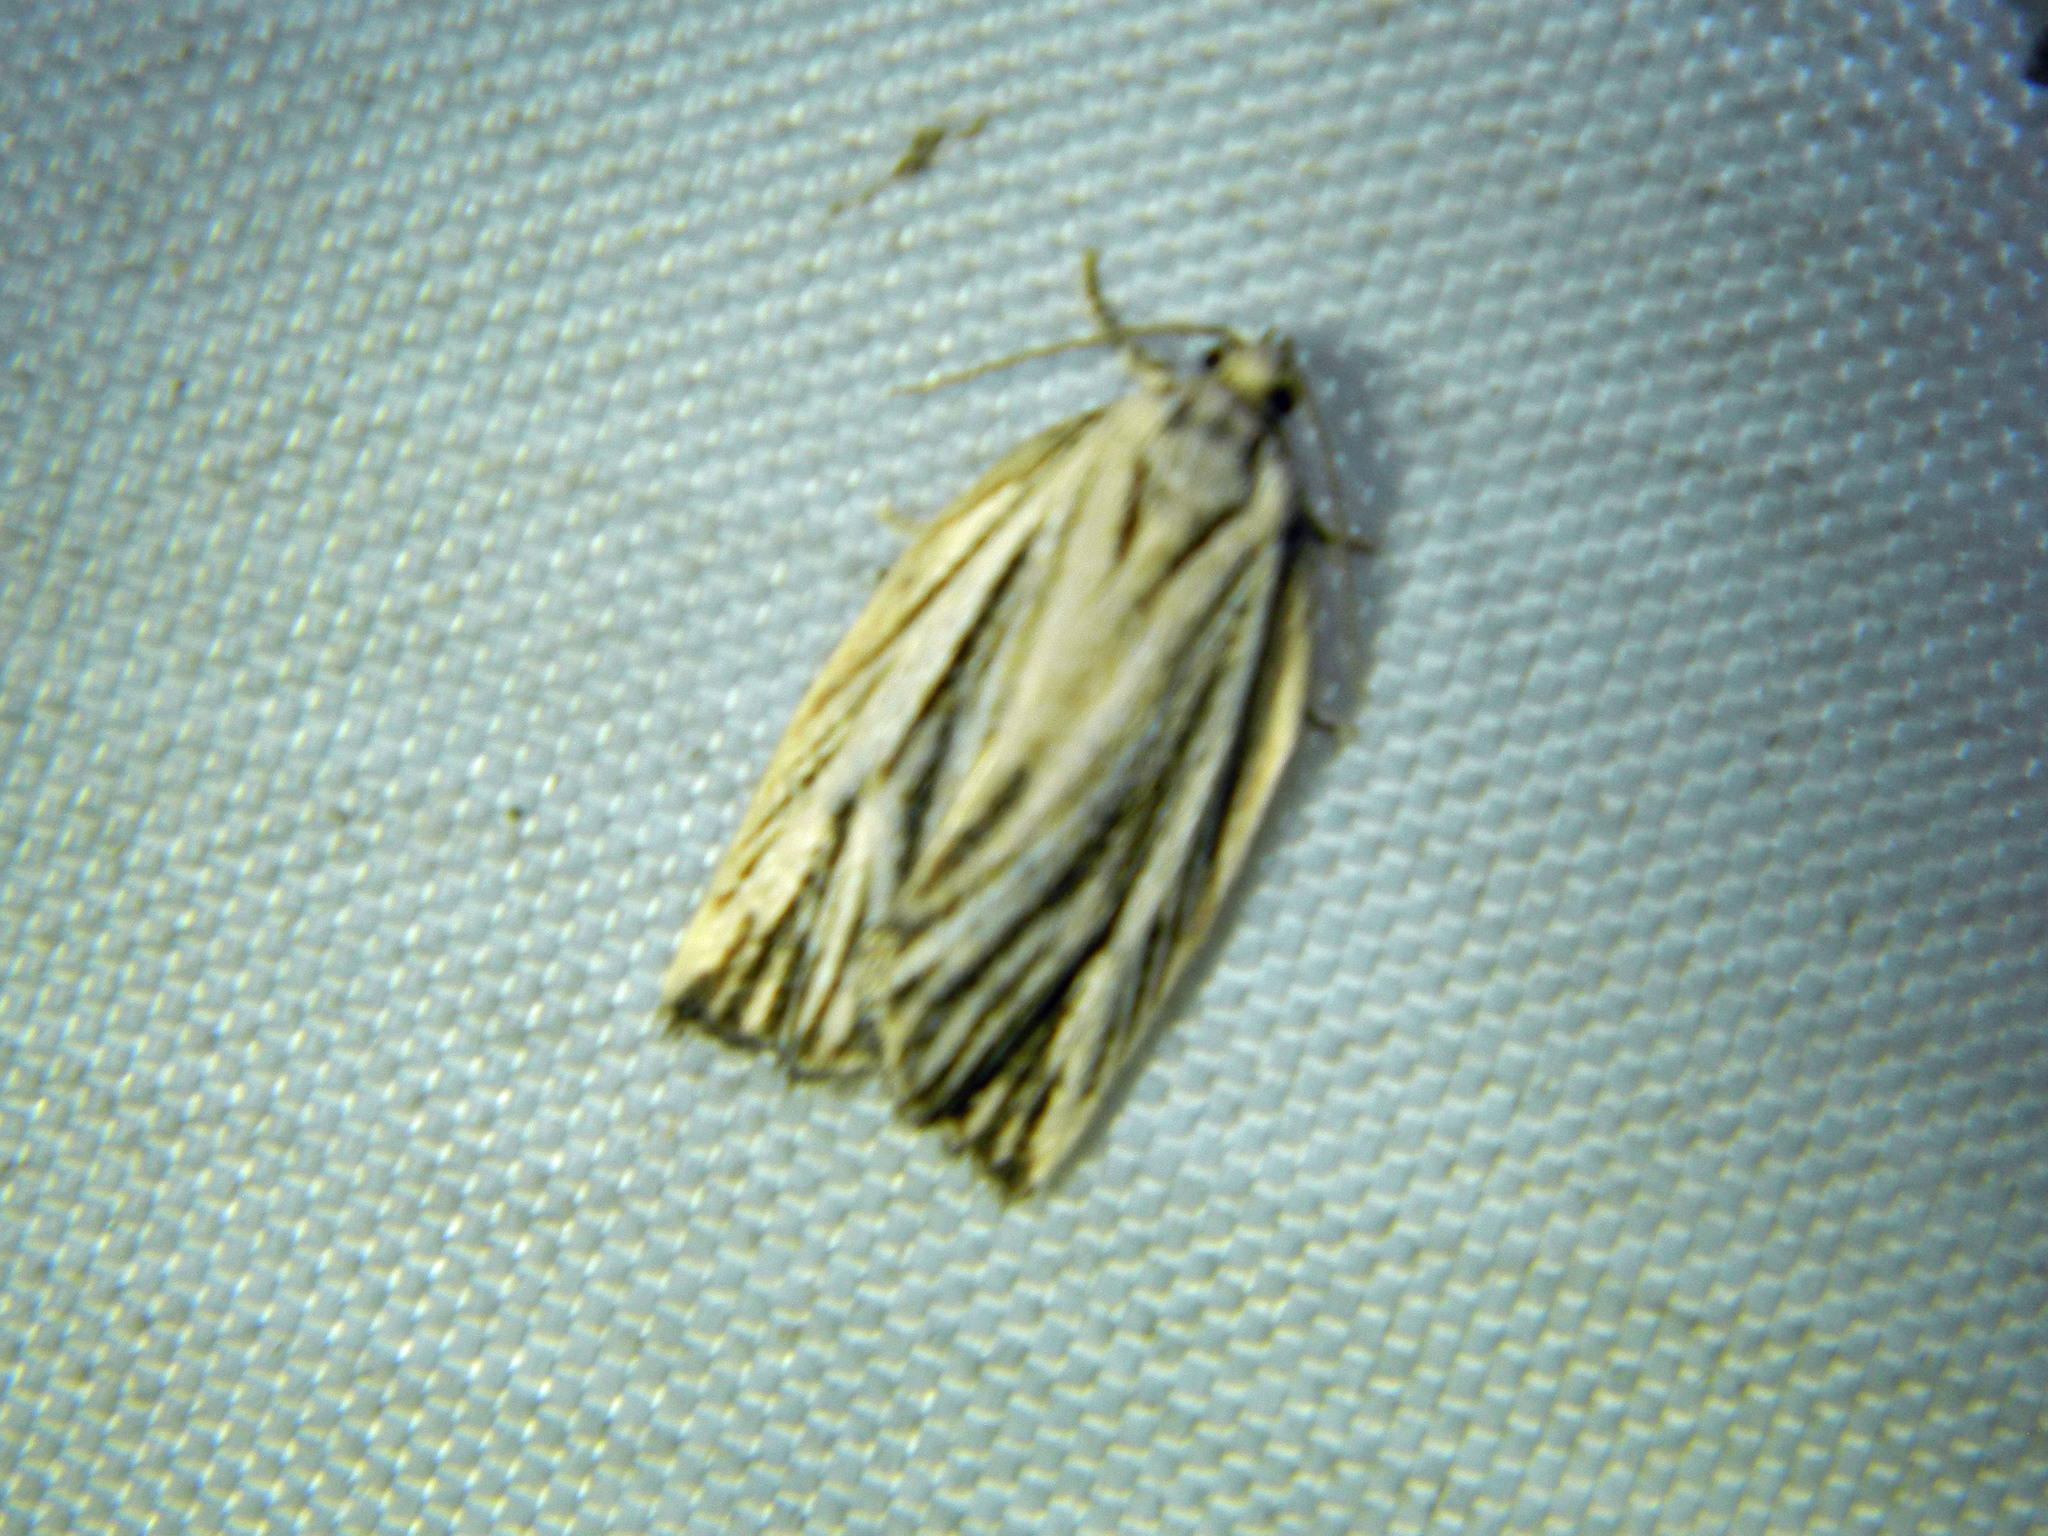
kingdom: Animalia
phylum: Arthropoda
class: Insecta
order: Lepidoptera
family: Tortricidae
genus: Archips
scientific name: Archips strianus
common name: Striated tortrix moth
